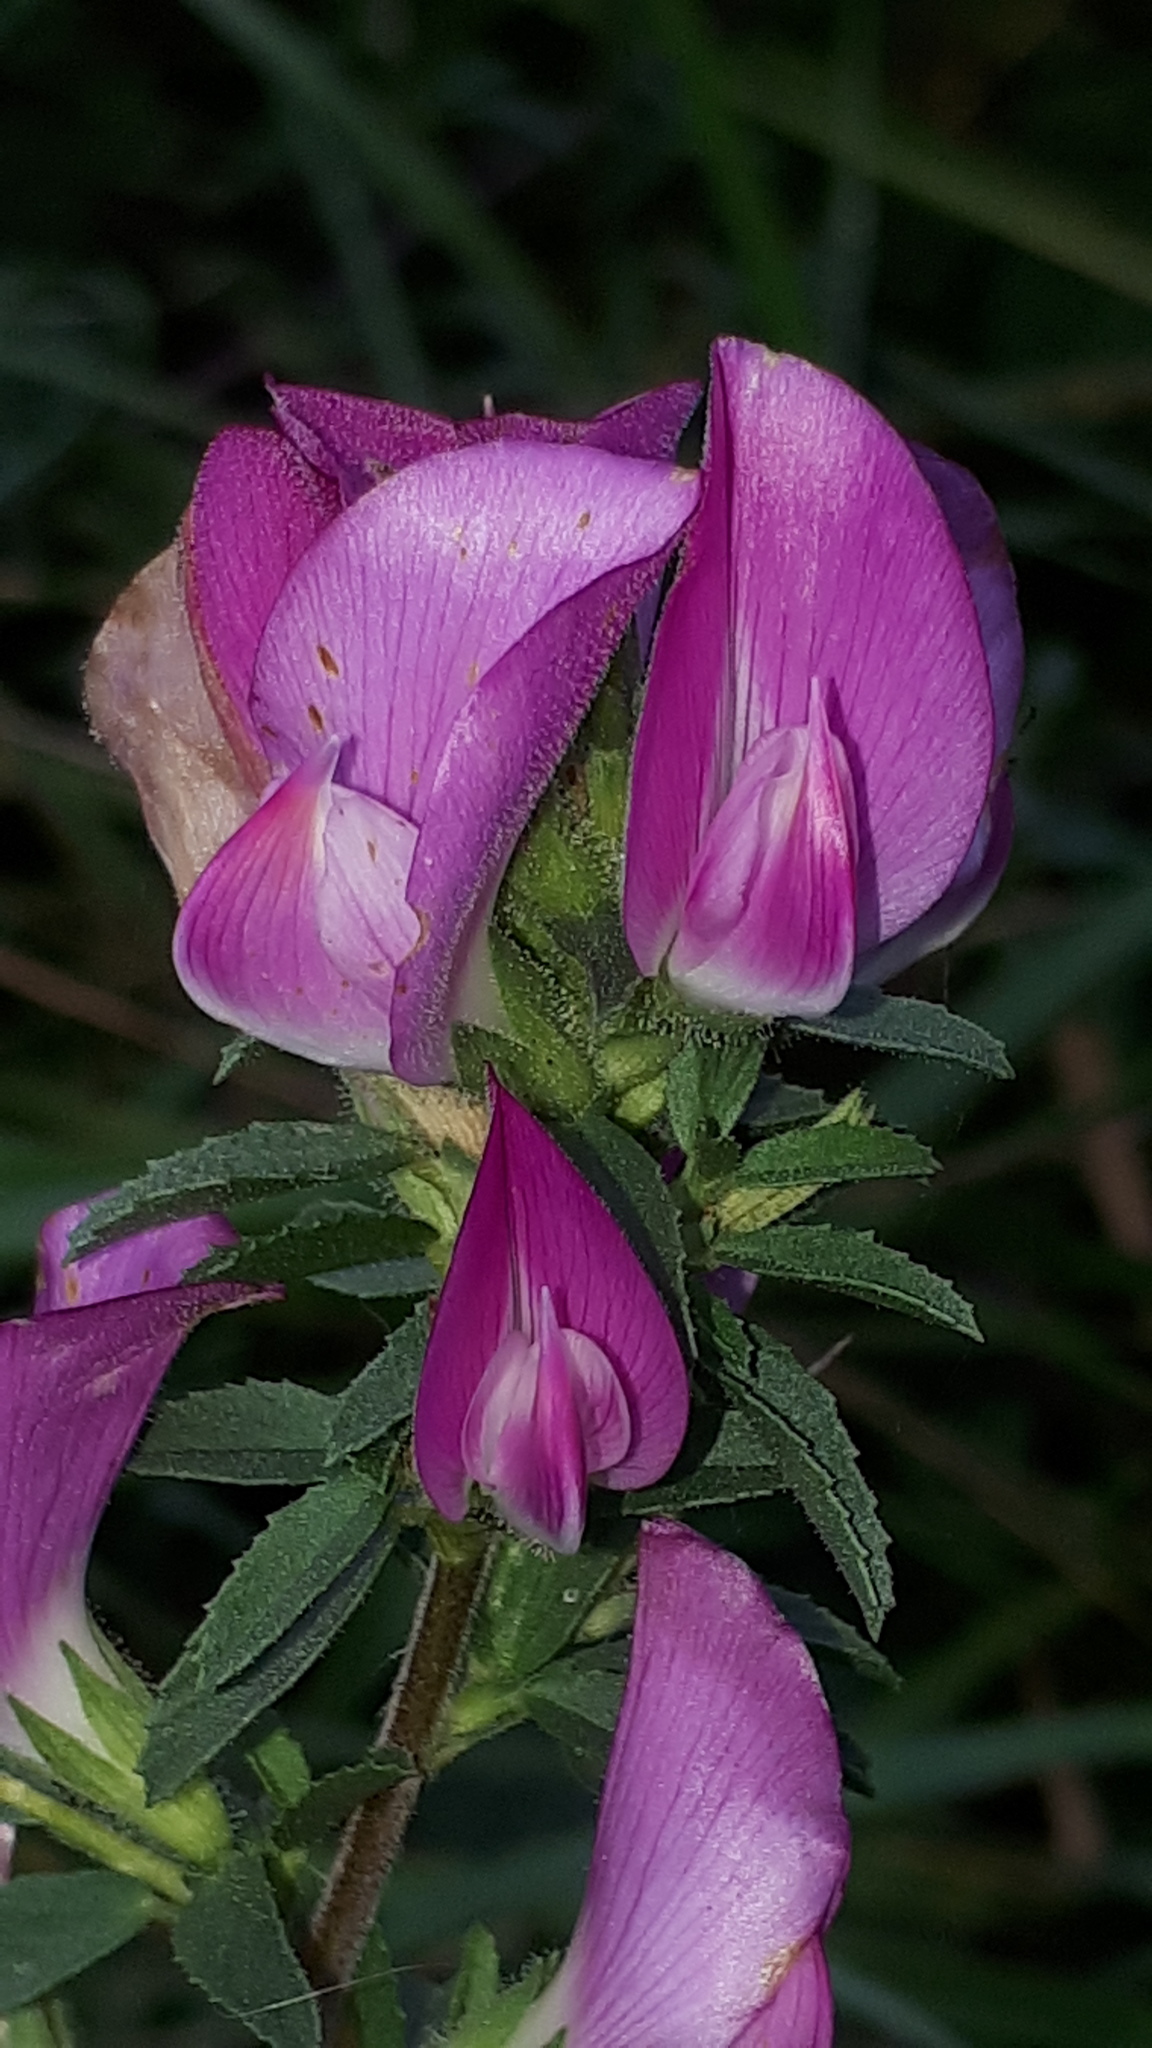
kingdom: Plantae
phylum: Tracheophyta
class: Magnoliopsida
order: Fabales
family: Fabaceae
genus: Ononis
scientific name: Ononis spinosa
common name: Spiny restharrow
